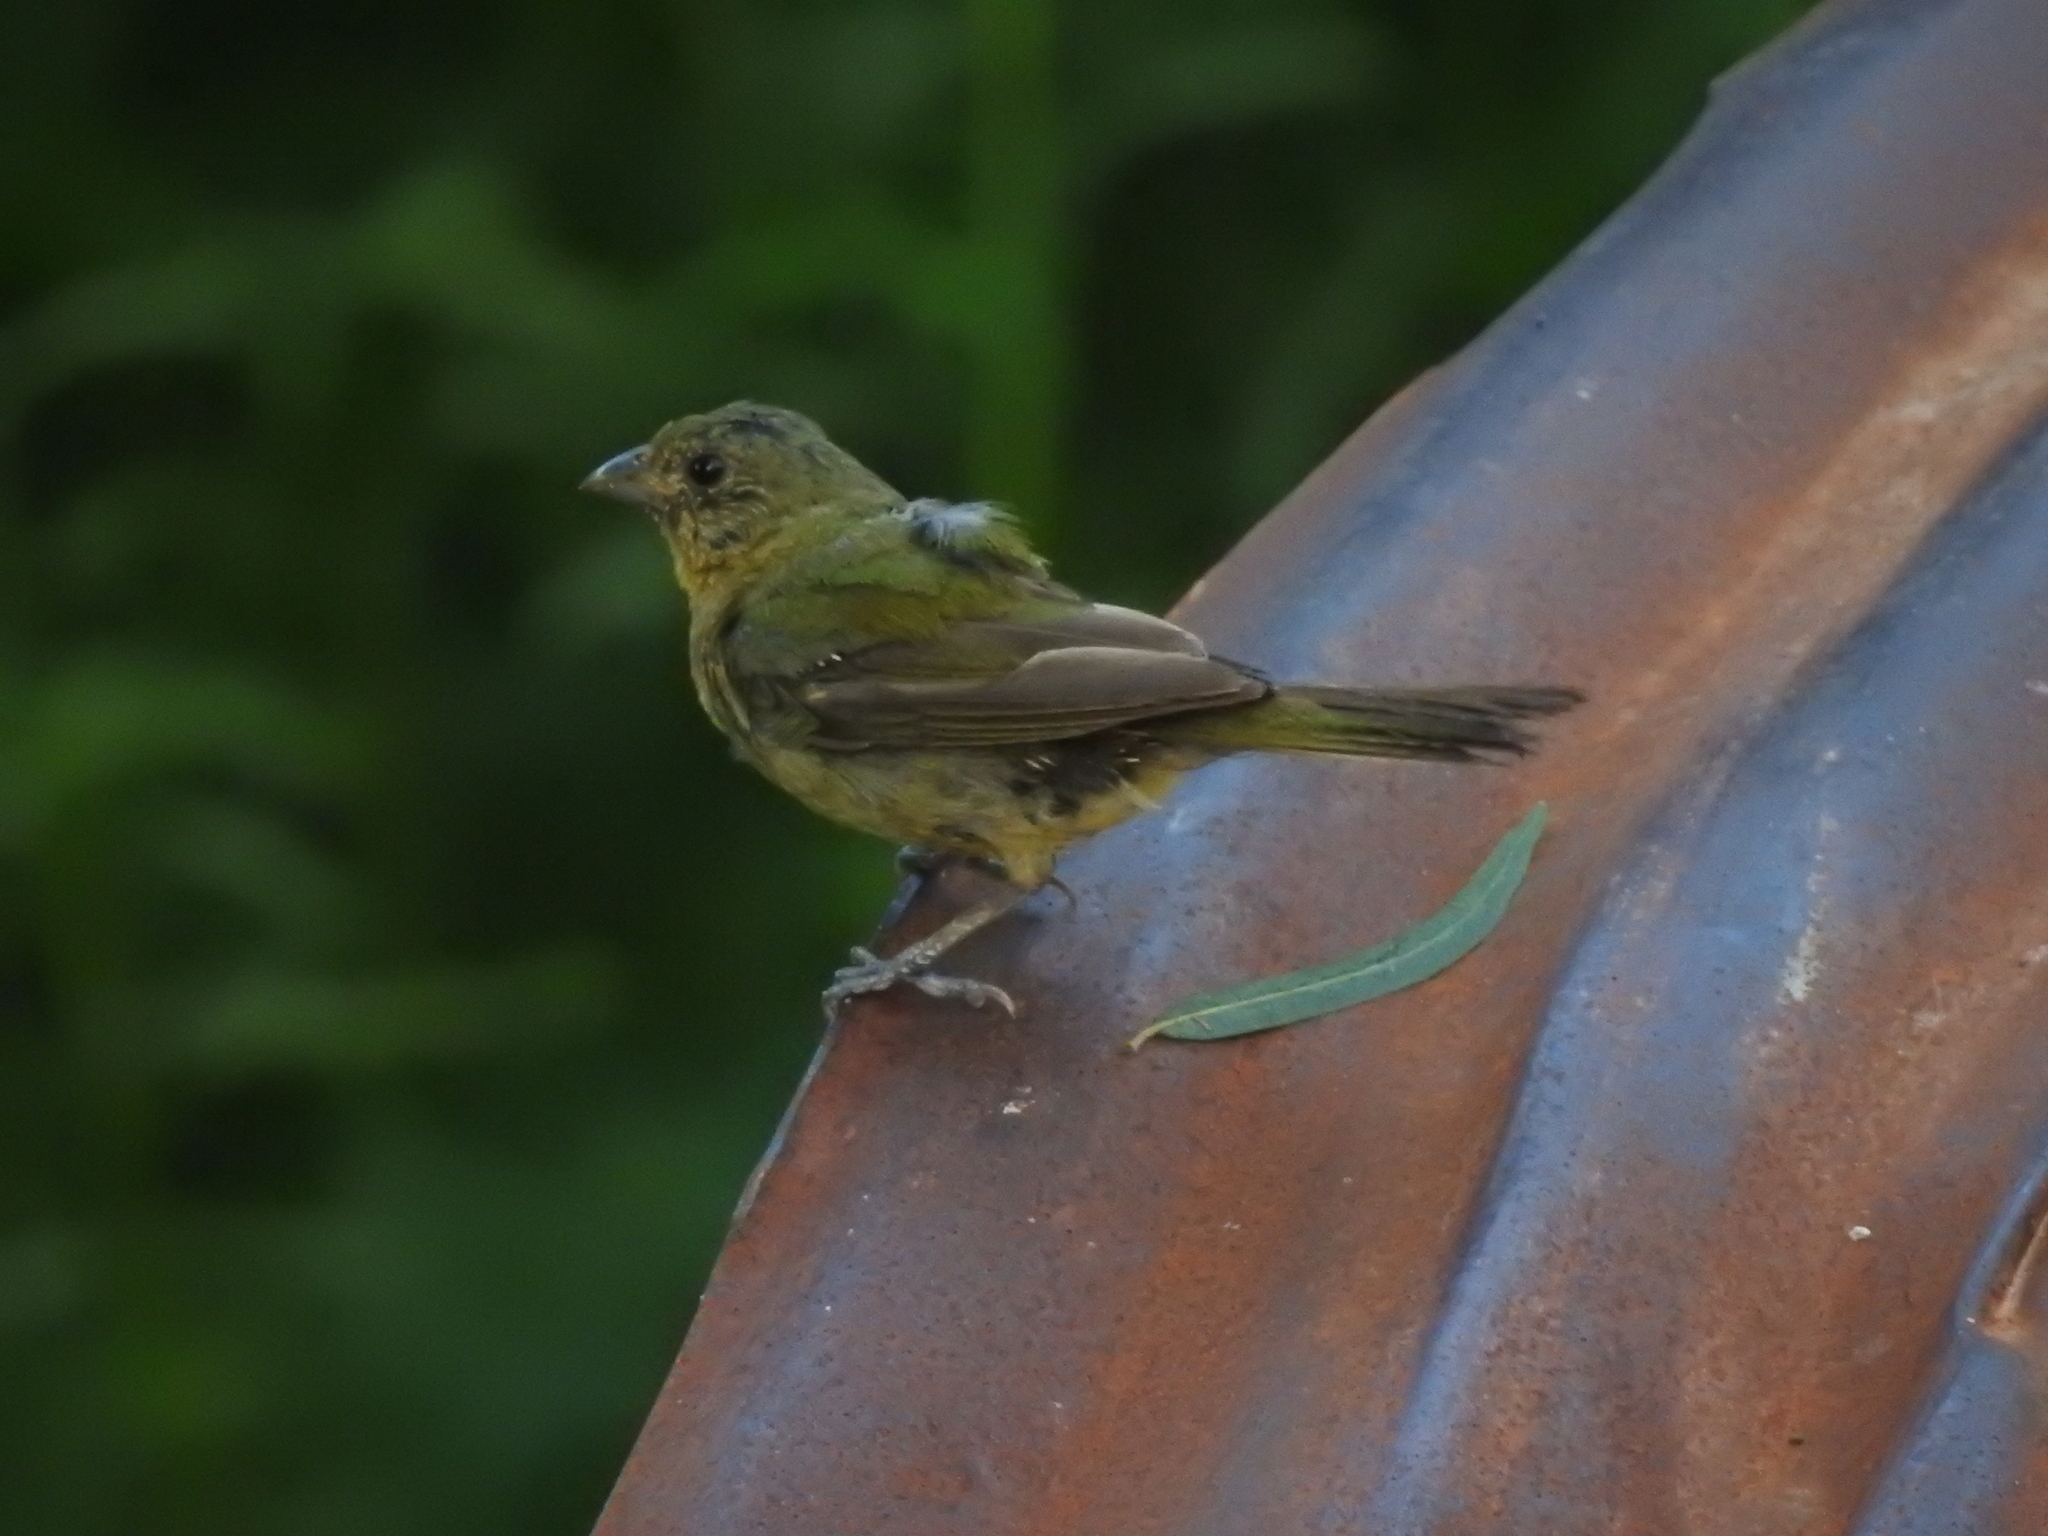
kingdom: Animalia
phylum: Chordata
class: Aves
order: Passeriformes
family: Cardinalidae
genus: Passerina
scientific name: Passerina ciris
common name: Painted bunting
